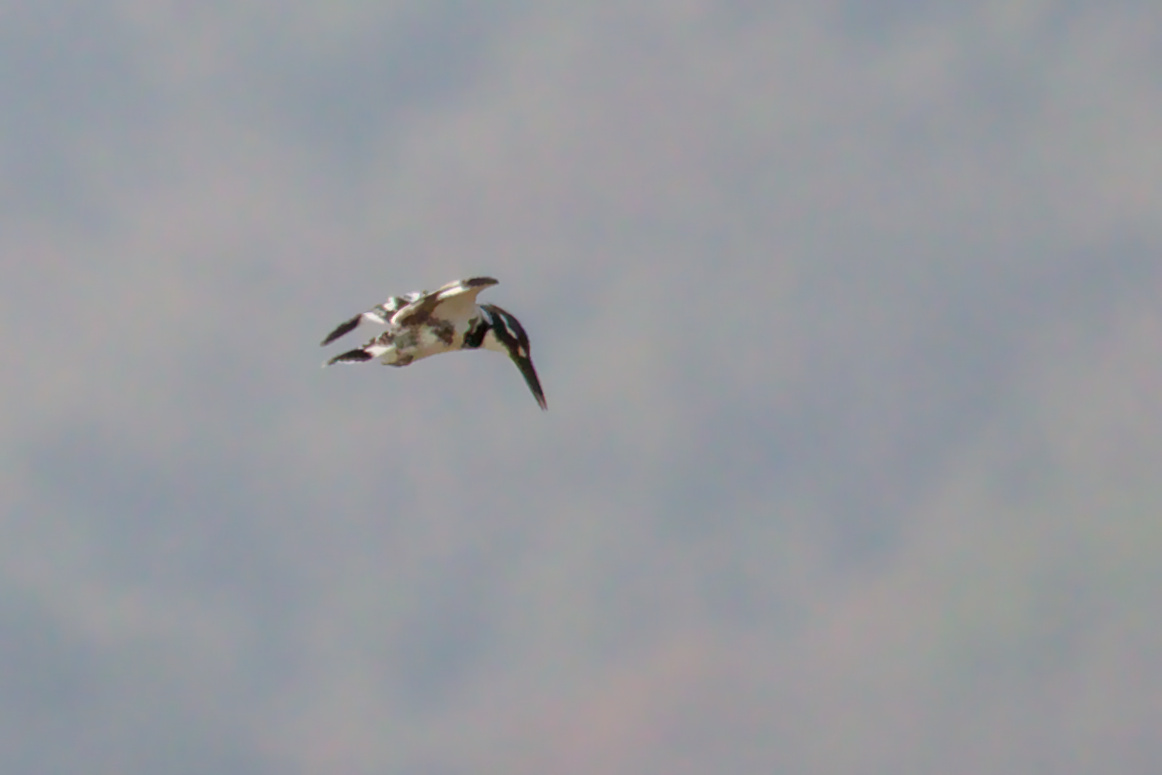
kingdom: Animalia
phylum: Chordata
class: Aves
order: Coraciiformes
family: Alcedinidae
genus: Ceryle
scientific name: Ceryle rudis
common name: Pied kingfisher
